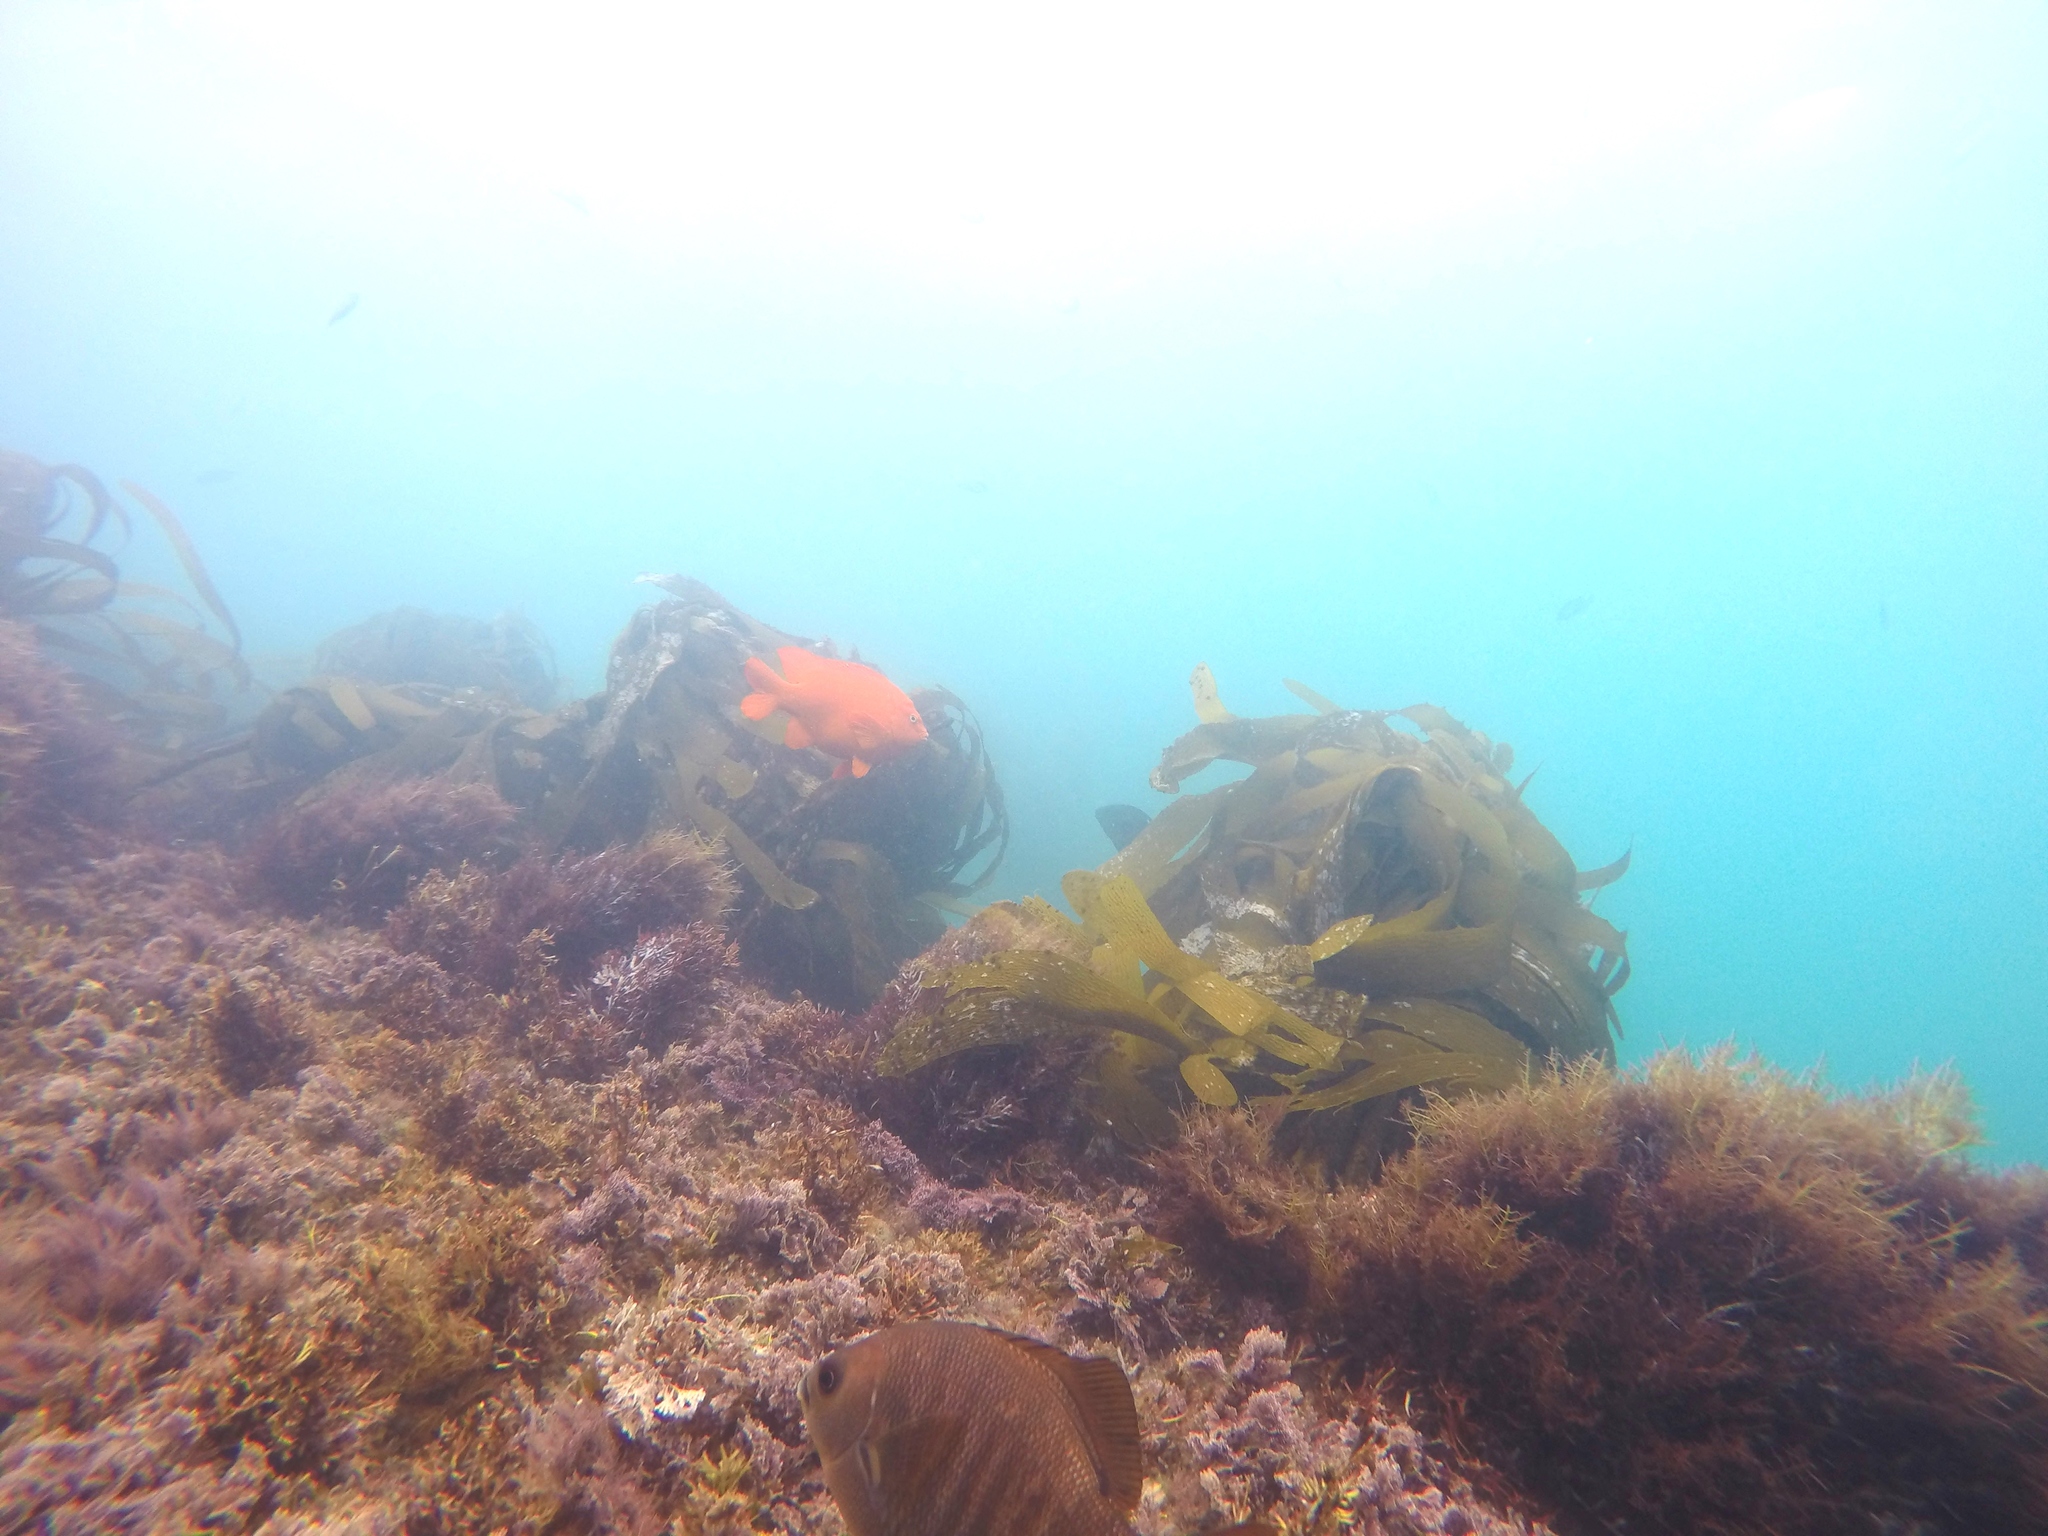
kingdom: Animalia
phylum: Chordata
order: Perciformes
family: Embiotocidae
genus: Embiotoca
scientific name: Embiotoca jacksoni
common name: Black perch
